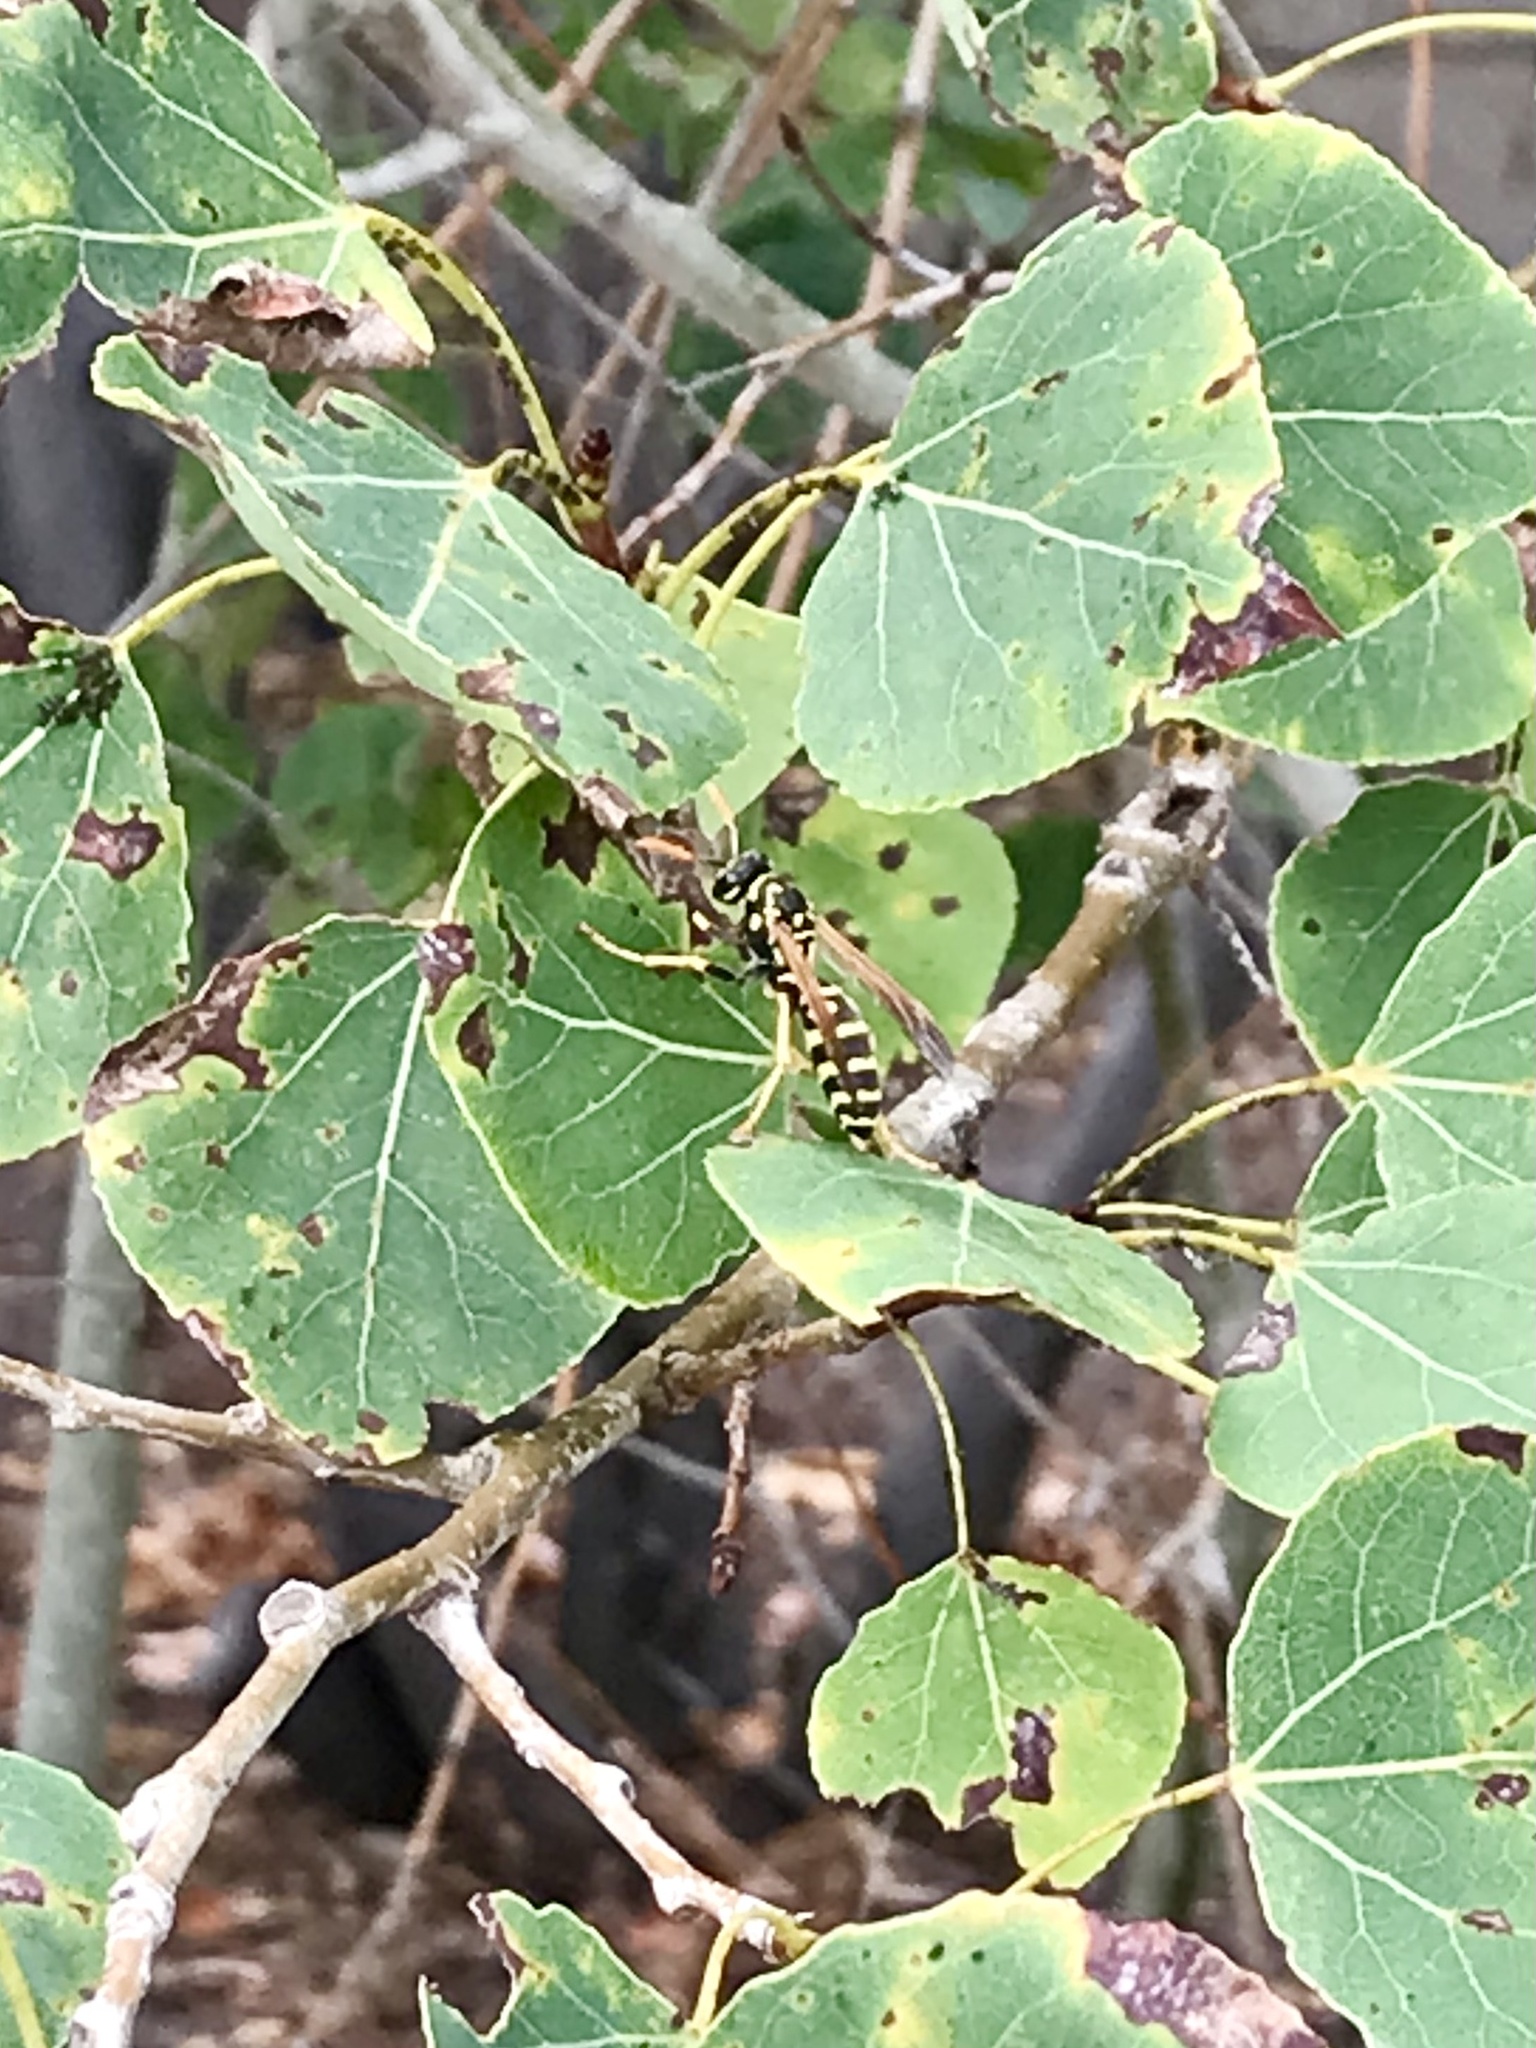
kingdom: Animalia
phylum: Arthropoda
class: Insecta
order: Hymenoptera
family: Eumenidae
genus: Polistes
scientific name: Polistes dominula
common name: Paper wasp
